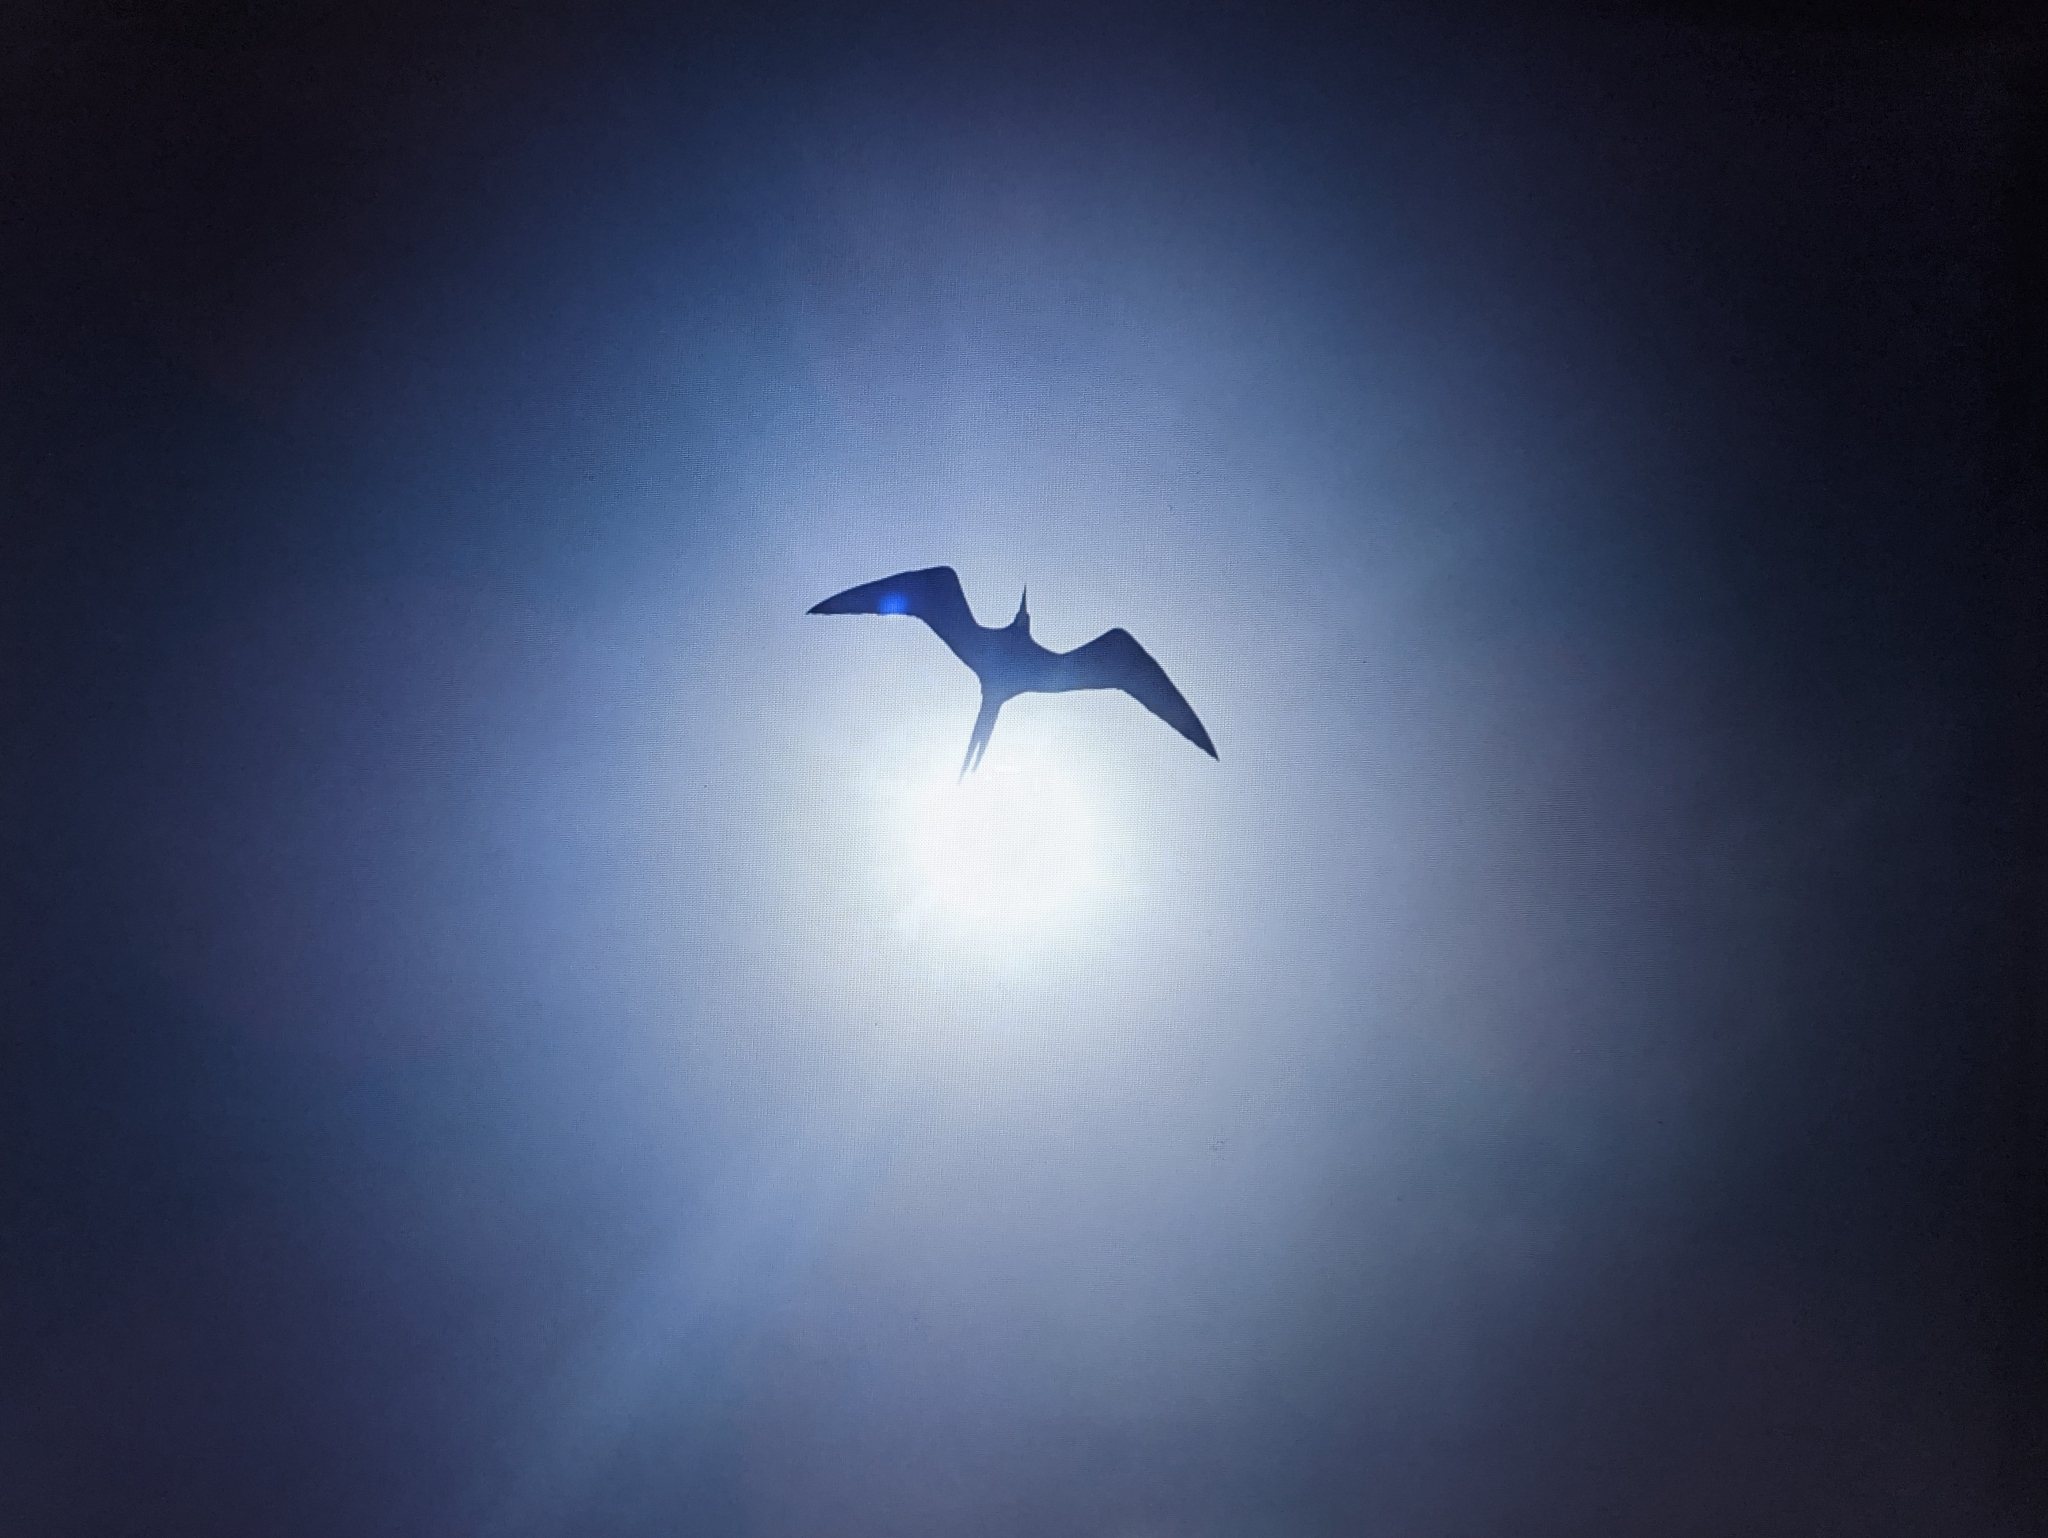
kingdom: Animalia
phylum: Chordata
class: Aves
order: Suliformes
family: Fregatidae
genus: Fregata
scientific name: Fregata magnificens
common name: Magnificent frigatebird
